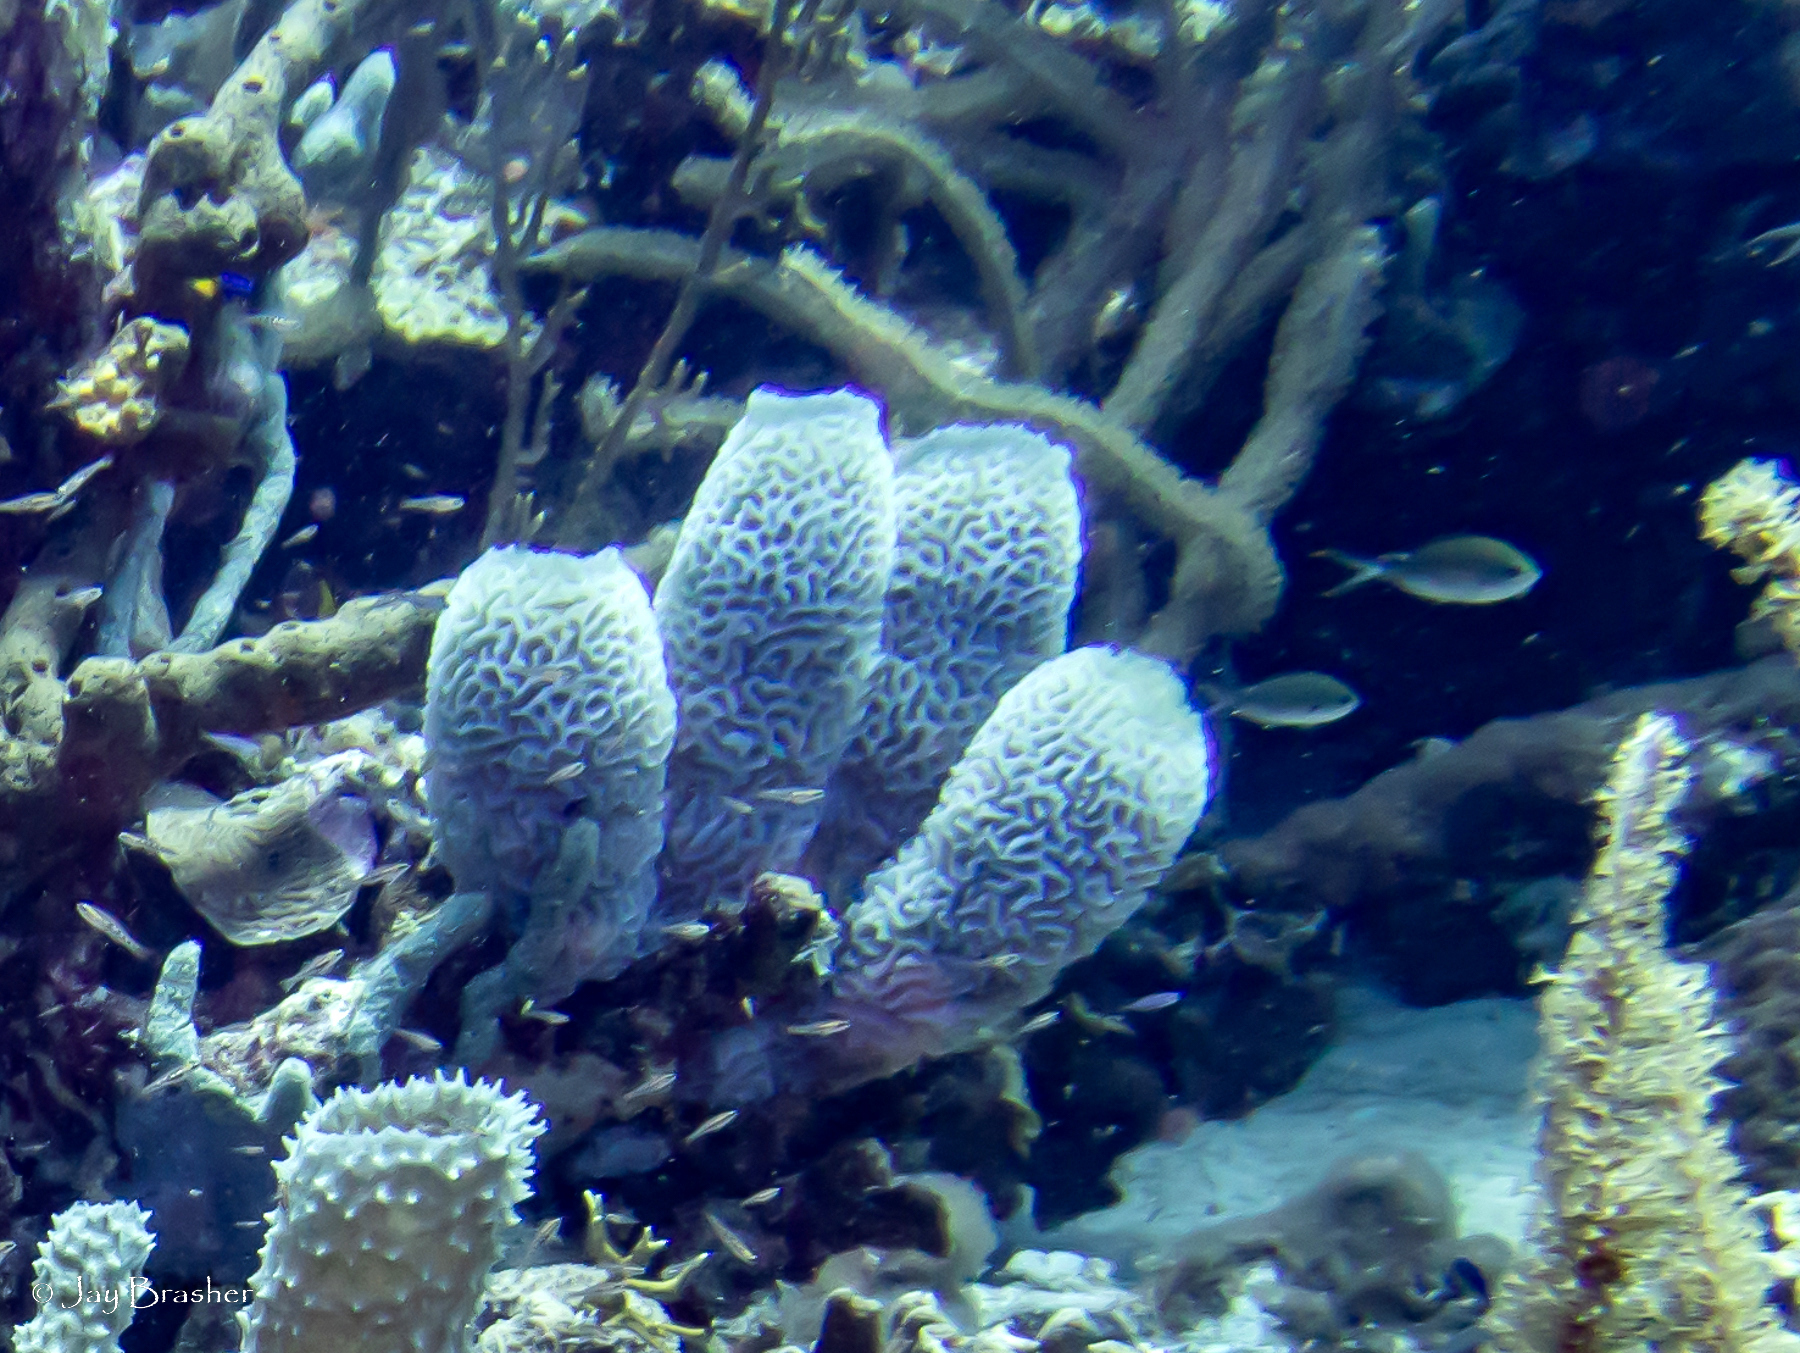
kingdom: Animalia
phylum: Porifera
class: Demospongiae
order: Haplosclerida
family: Callyspongiidae
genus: Callyspongia
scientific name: Callyspongia plicifera
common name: Azure vase sponge
